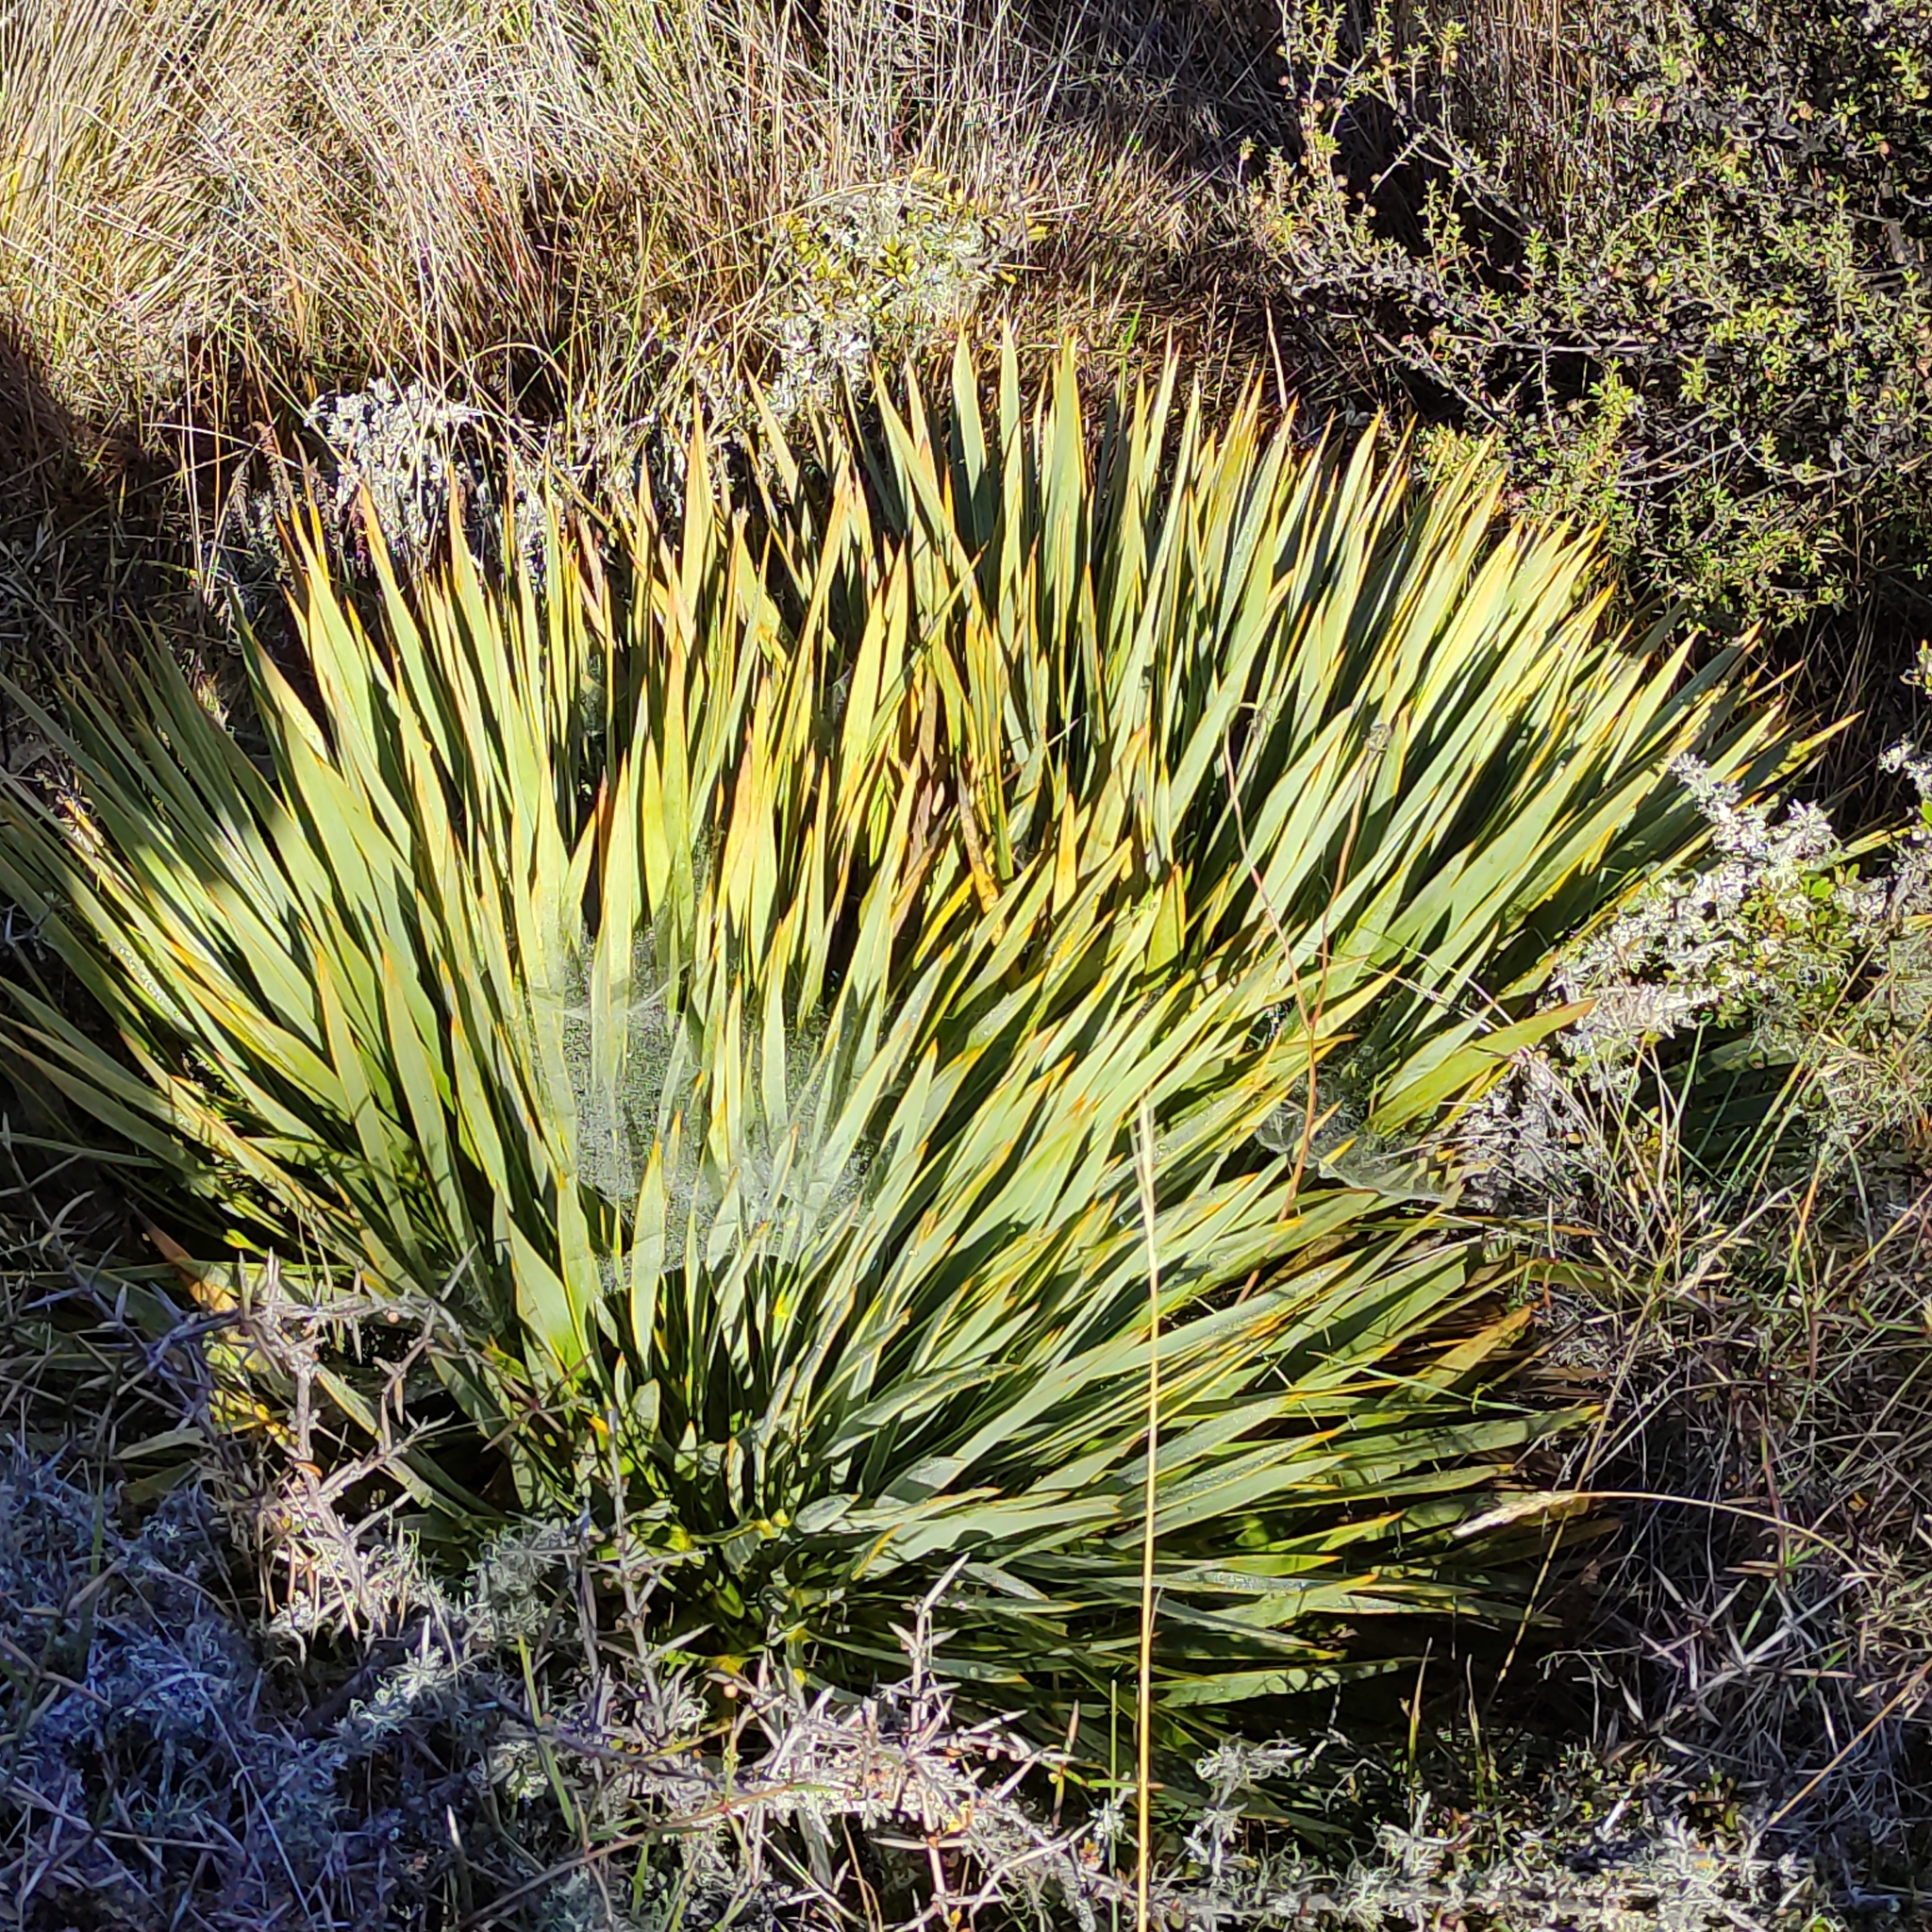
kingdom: Plantae
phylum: Tracheophyta
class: Magnoliopsida
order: Apiales
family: Apiaceae
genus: Aciphylla
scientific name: Aciphylla aurea
